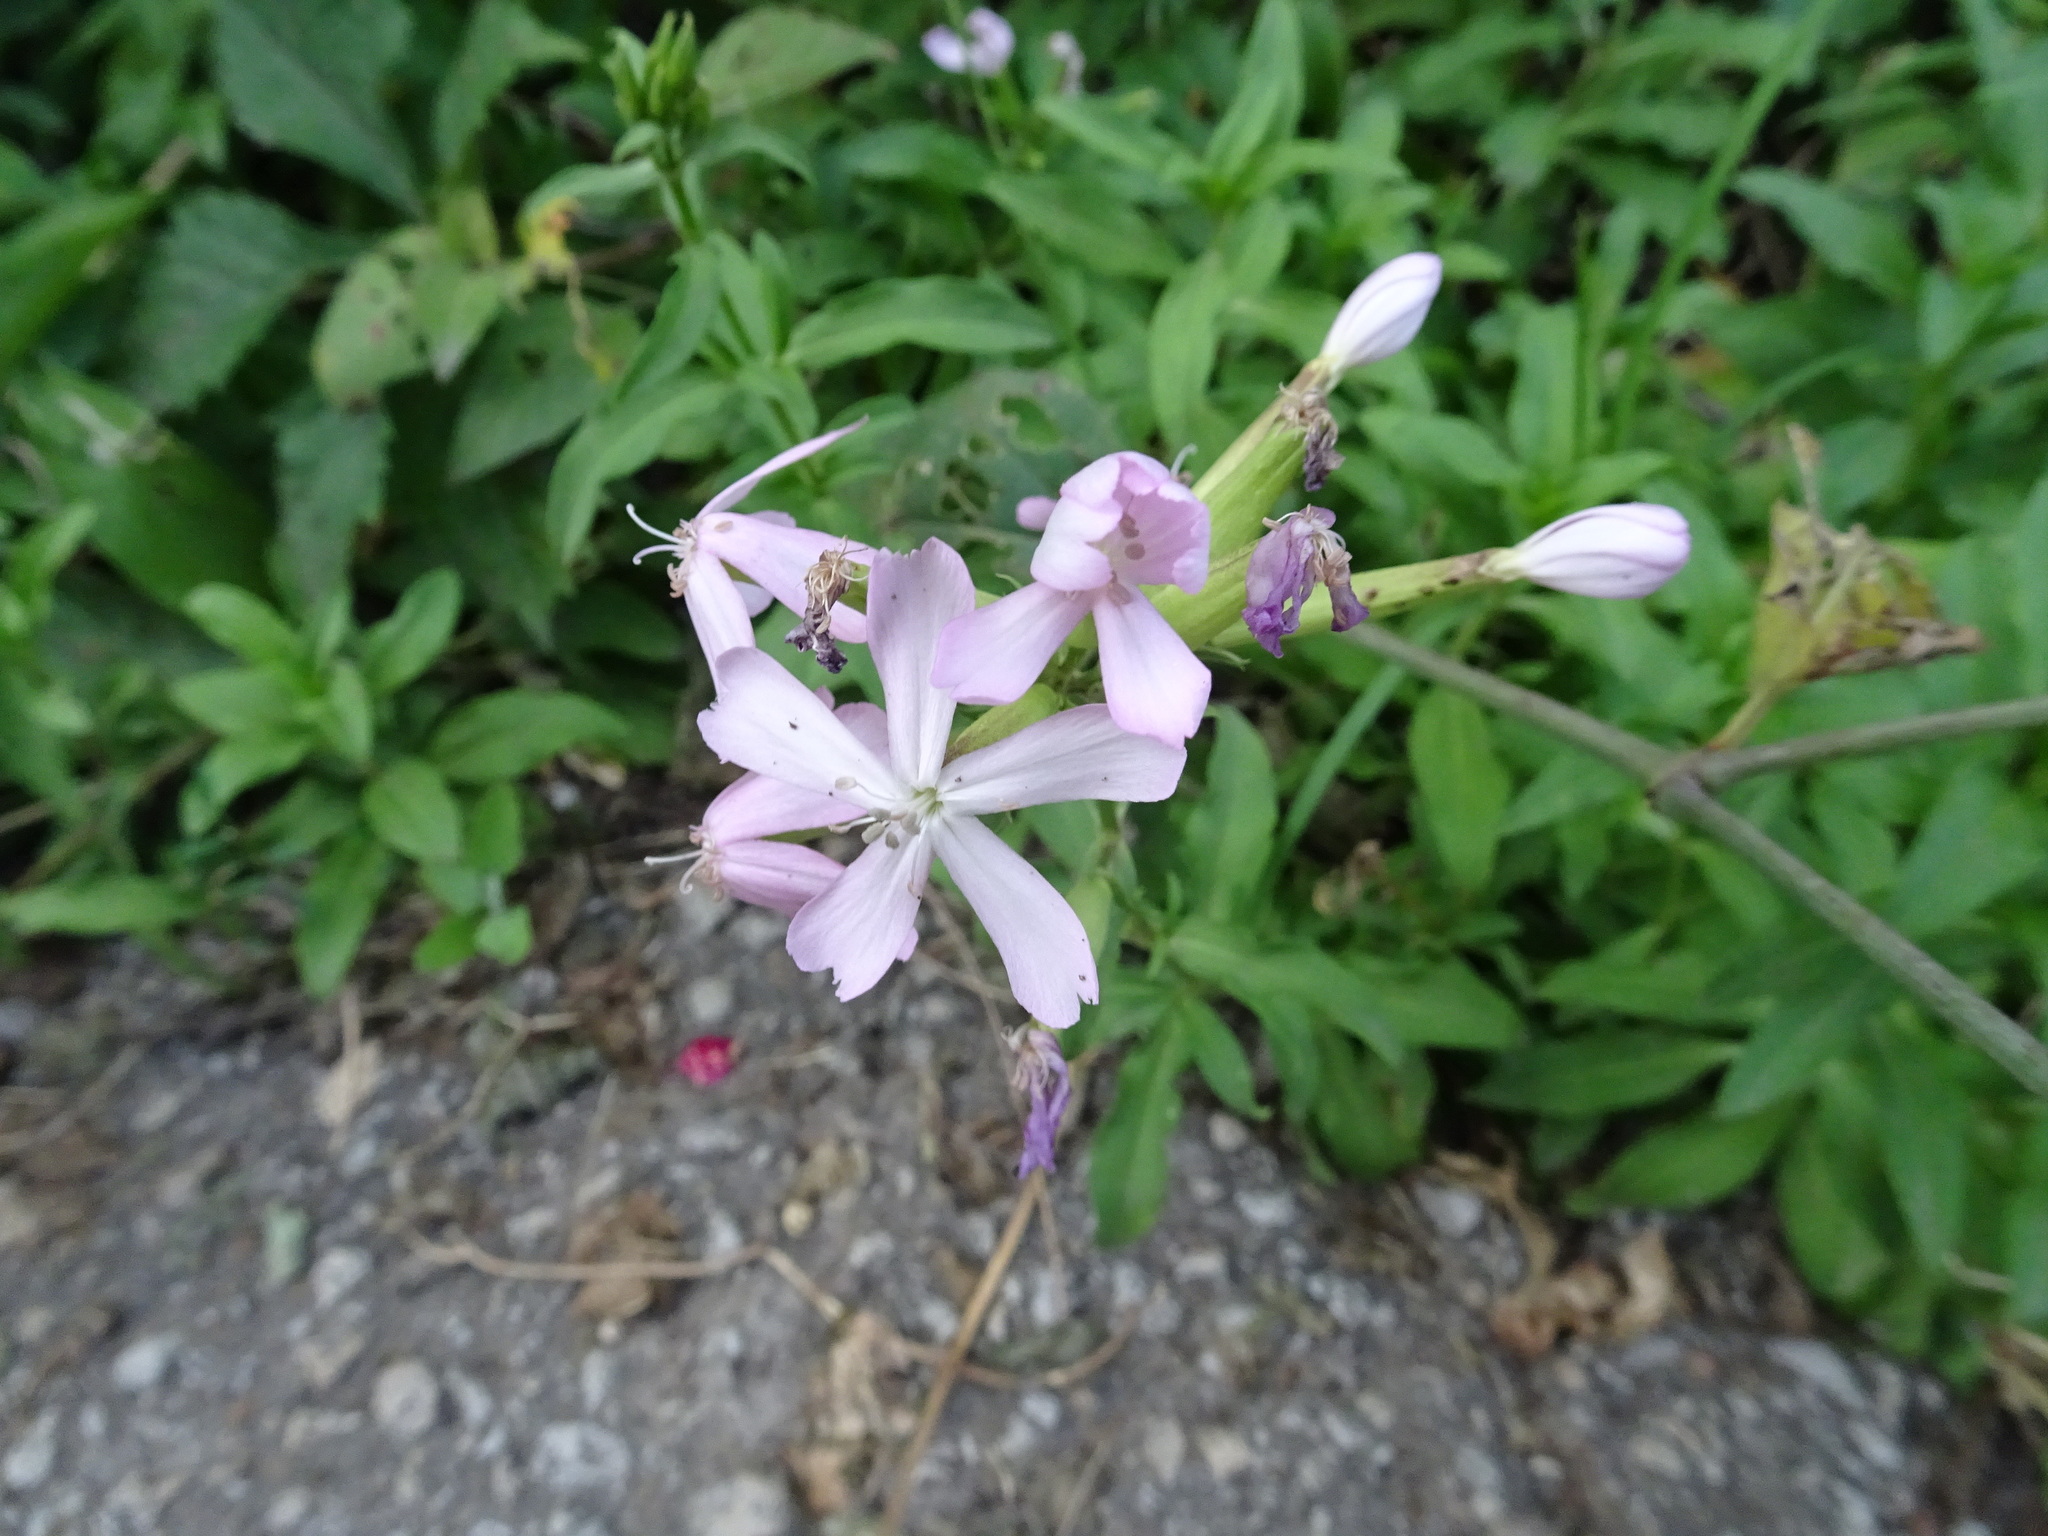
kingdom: Plantae
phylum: Tracheophyta
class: Magnoliopsida
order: Caryophyllales
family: Caryophyllaceae
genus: Saponaria
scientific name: Saponaria officinalis
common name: Soapwort
